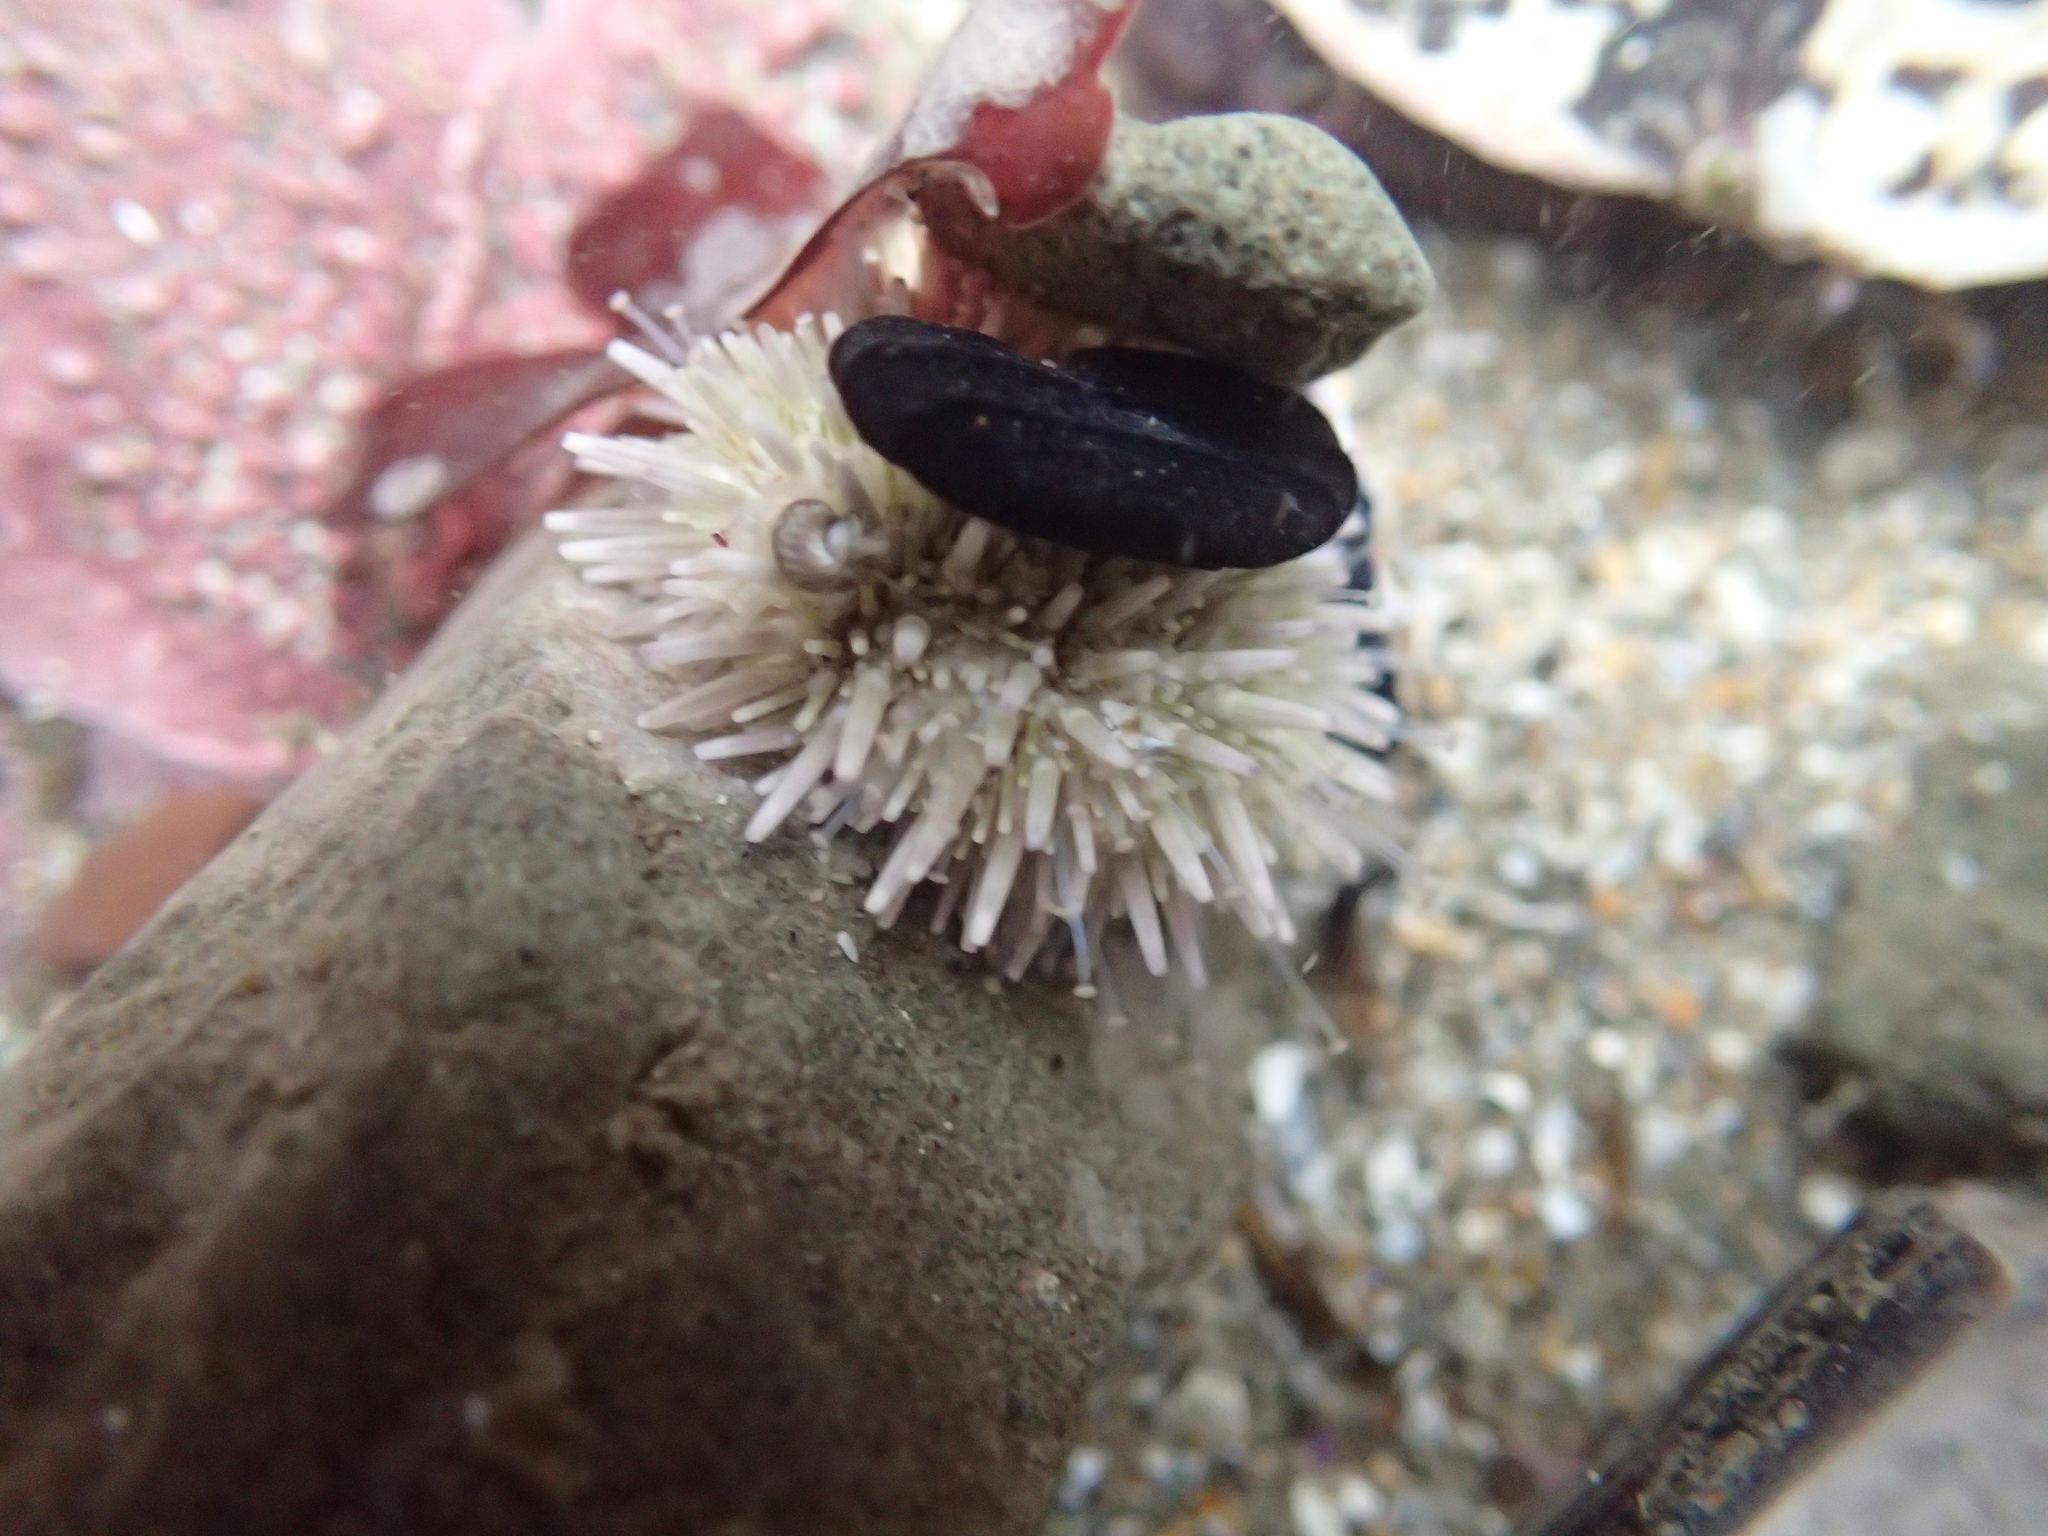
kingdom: Animalia
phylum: Echinodermata
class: Echinoidea
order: Camarodonta
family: Strongylocentrotidae
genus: Strongylocentrotus
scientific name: Strongylocentrotus purpuratus
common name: Purple sea urchin
